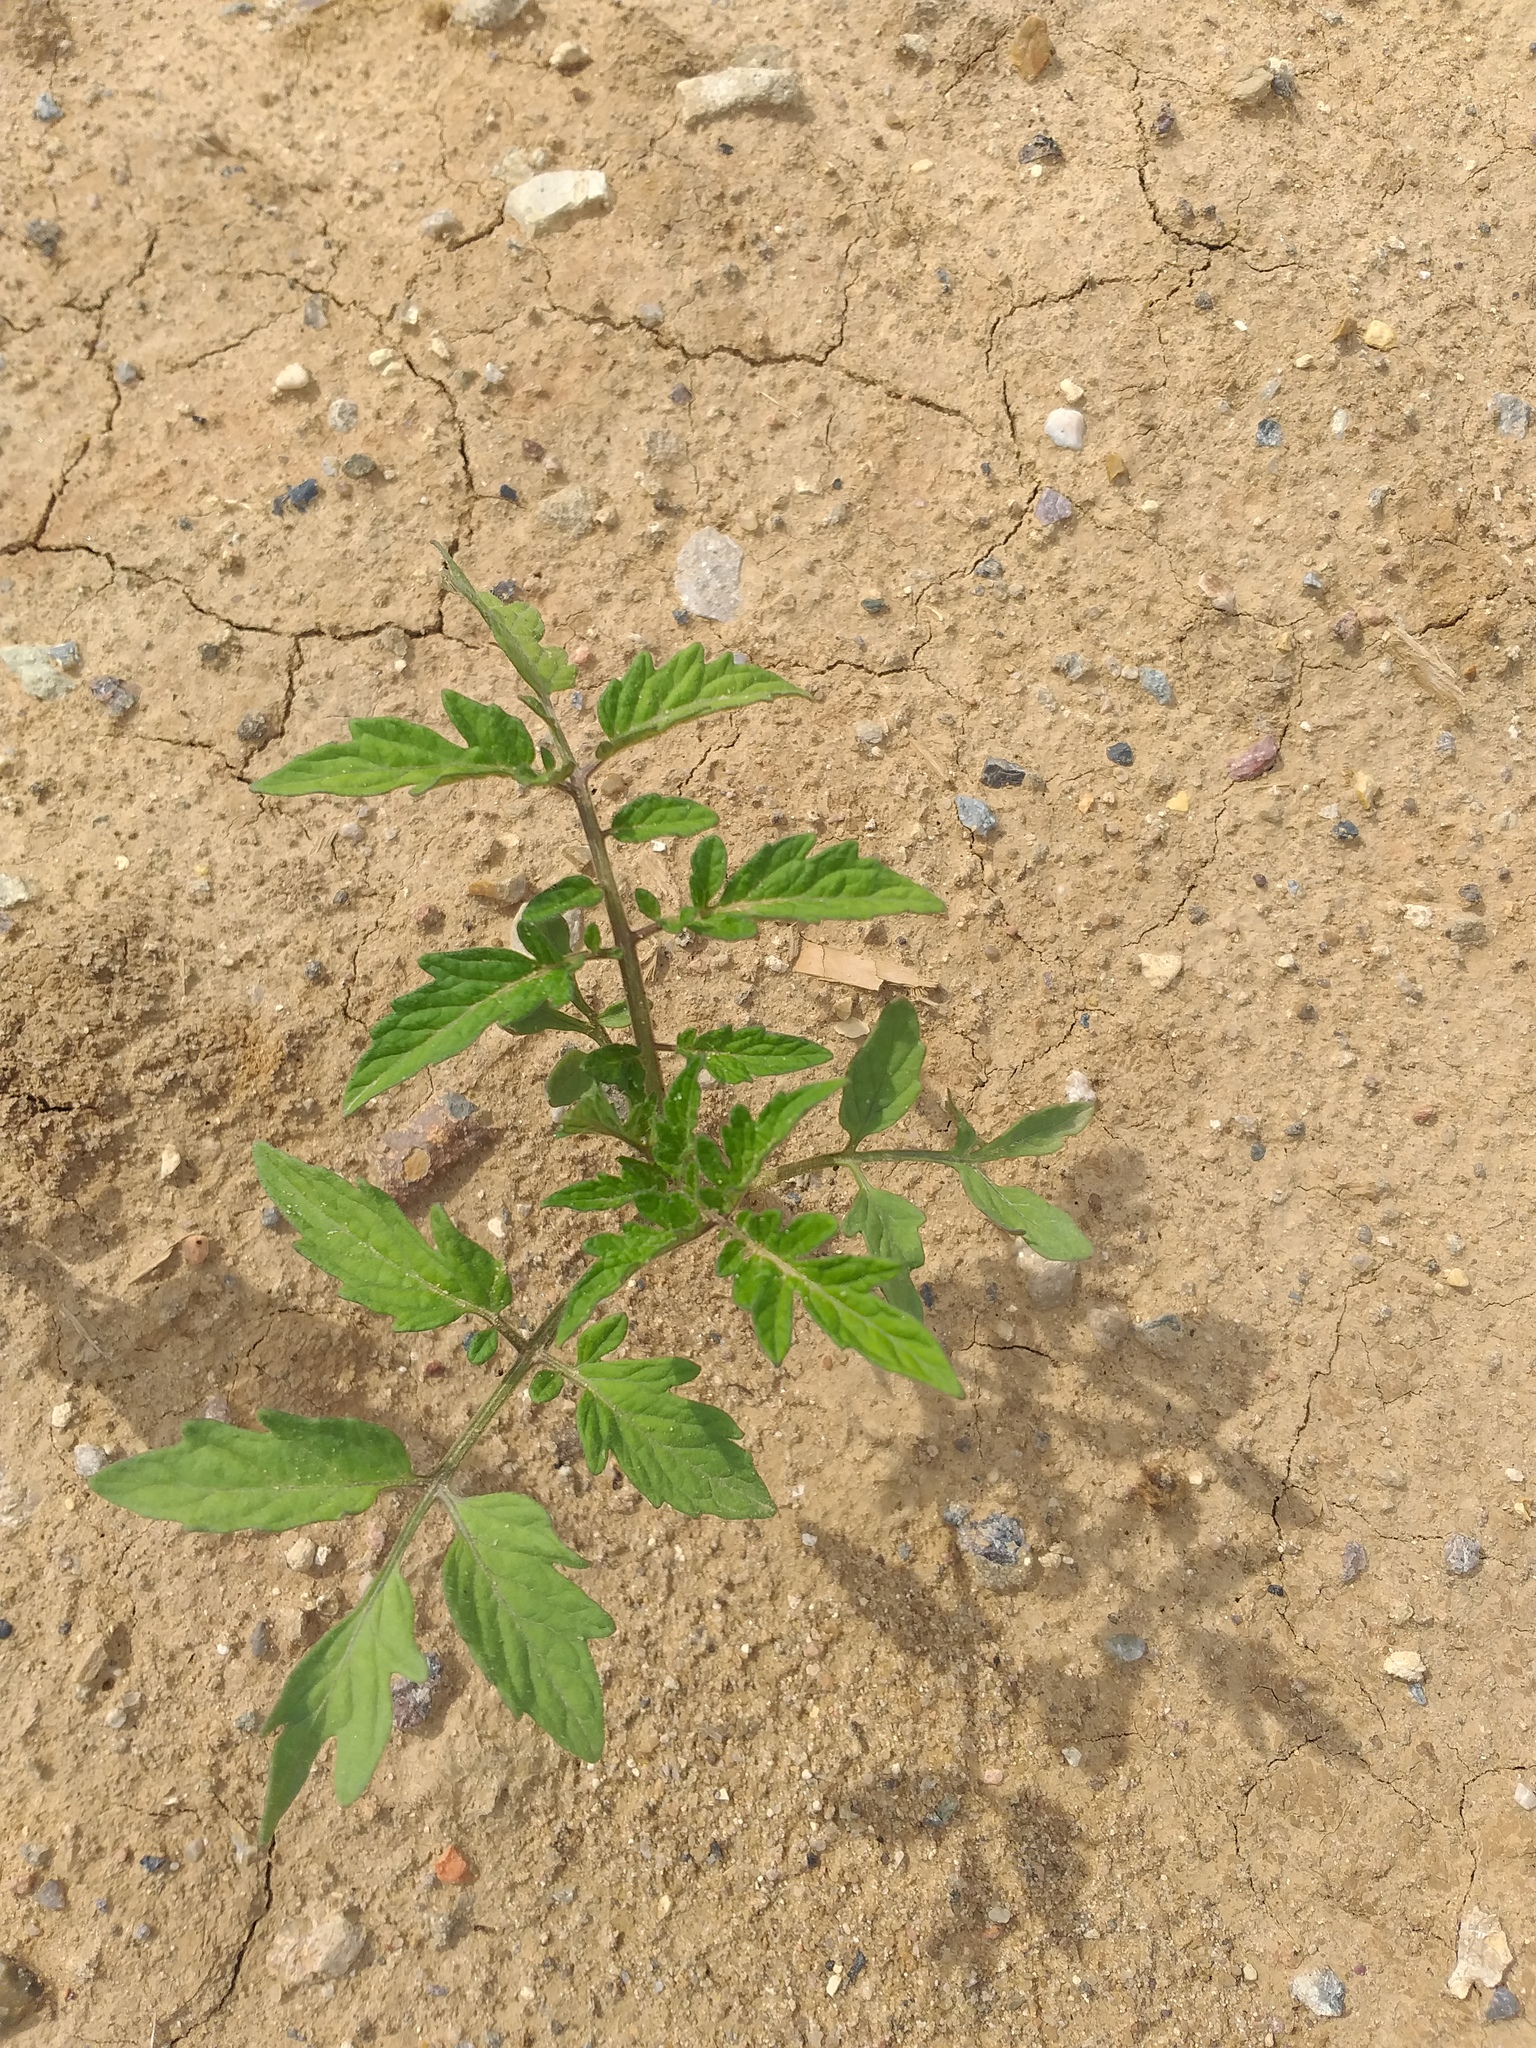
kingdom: Plantae
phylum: Tracheophyta
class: Magnoliopsida
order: Solanales
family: Solanaceae
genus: Solanum
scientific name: Solanum lycopersicum
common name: Garden tomato
